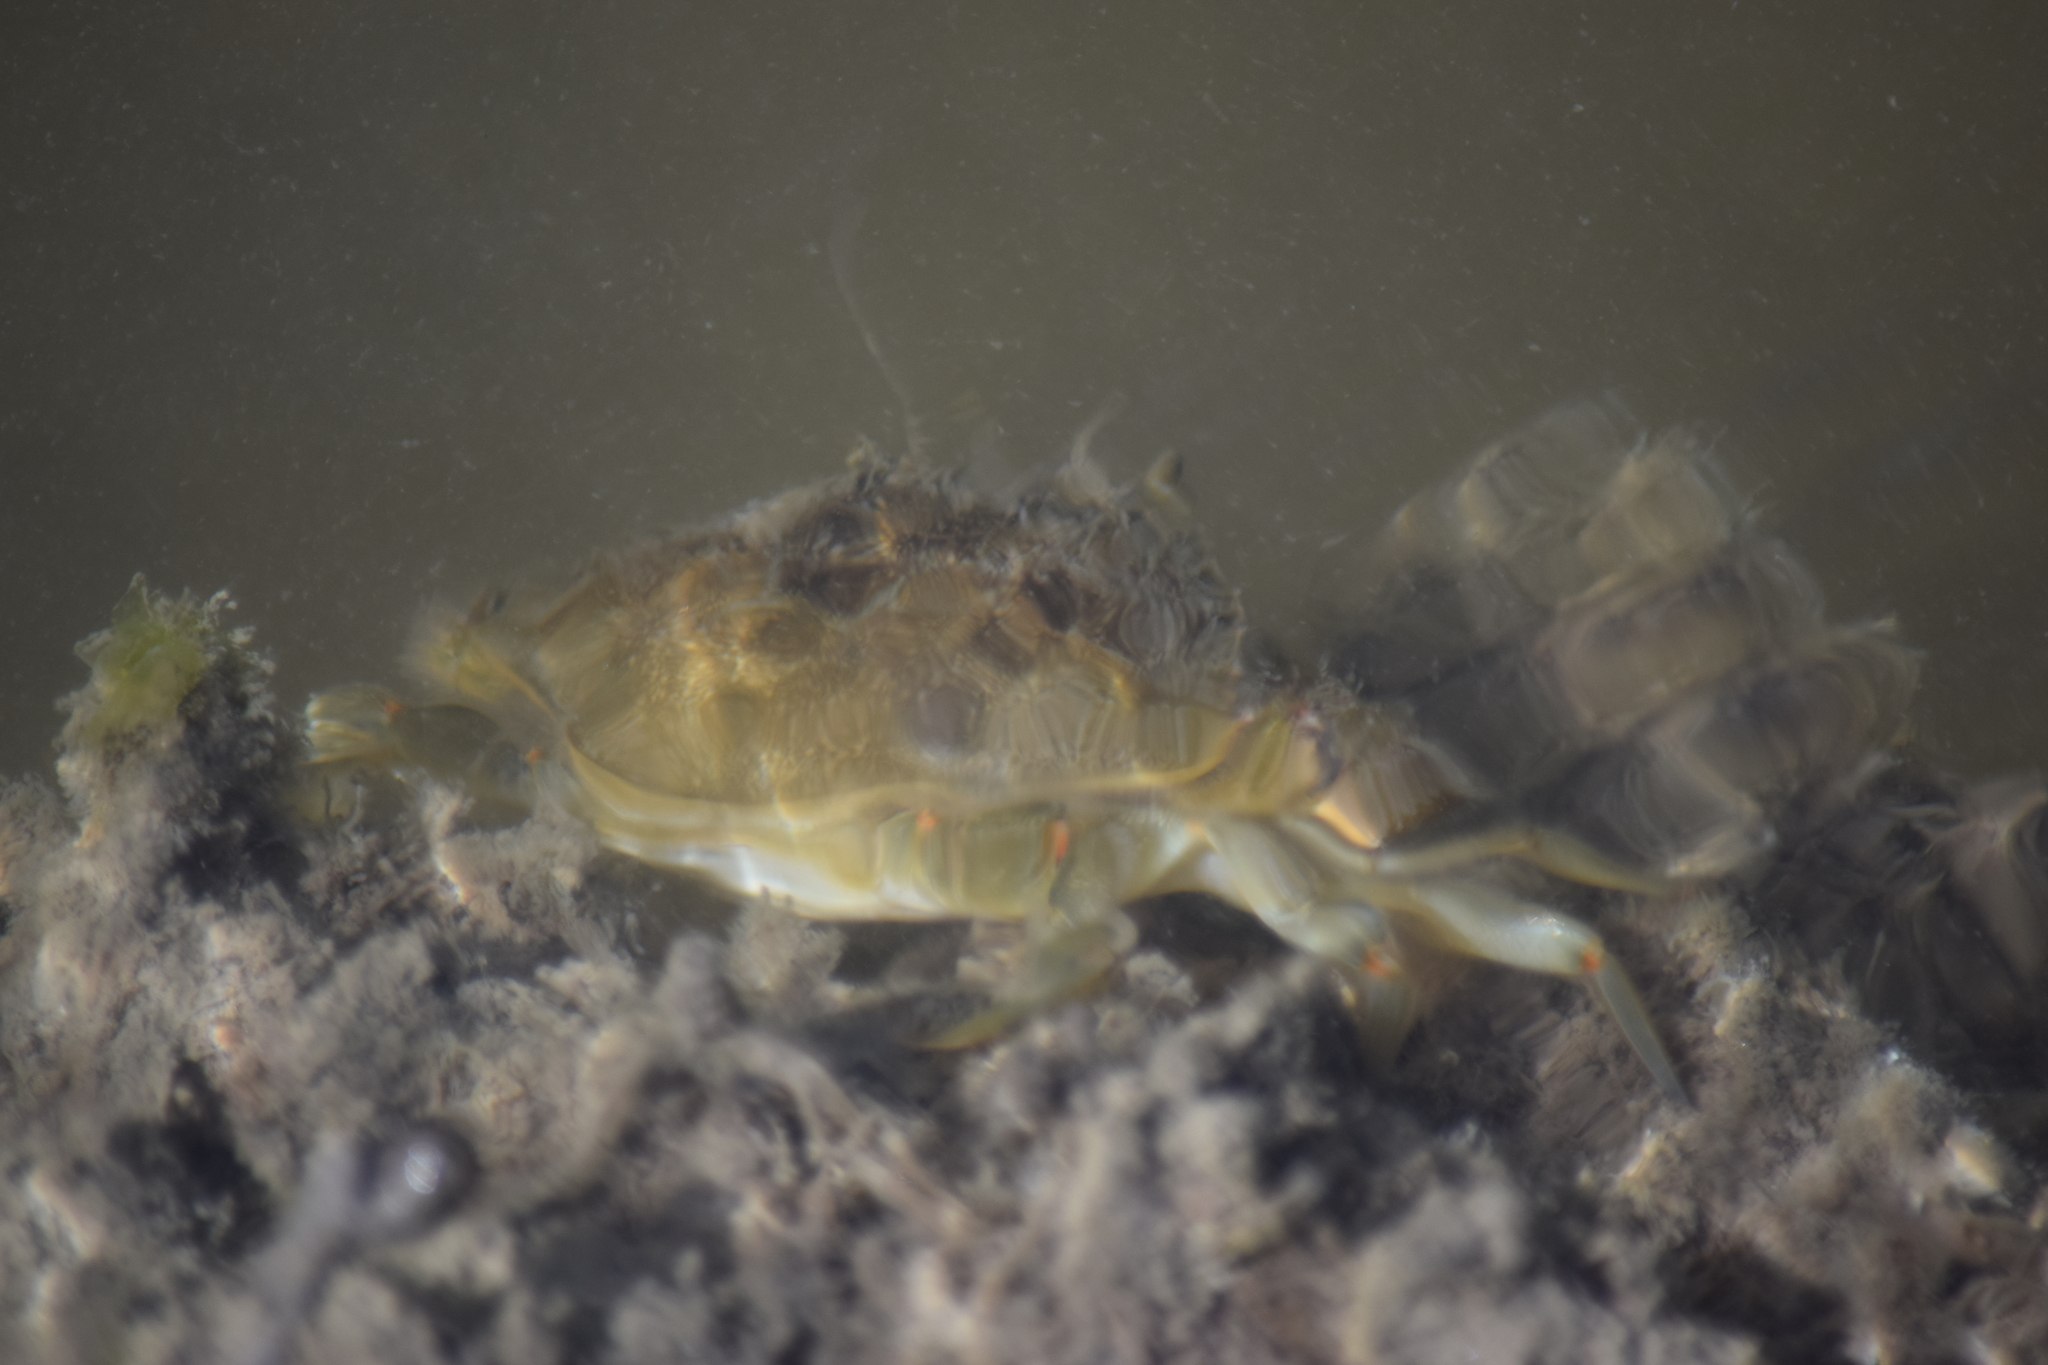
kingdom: Animalia
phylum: Arthropoda
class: Malacostraca
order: Decapoda
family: Portunidae
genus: Callinectes
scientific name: Callinectes sapidus
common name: Blue crab
